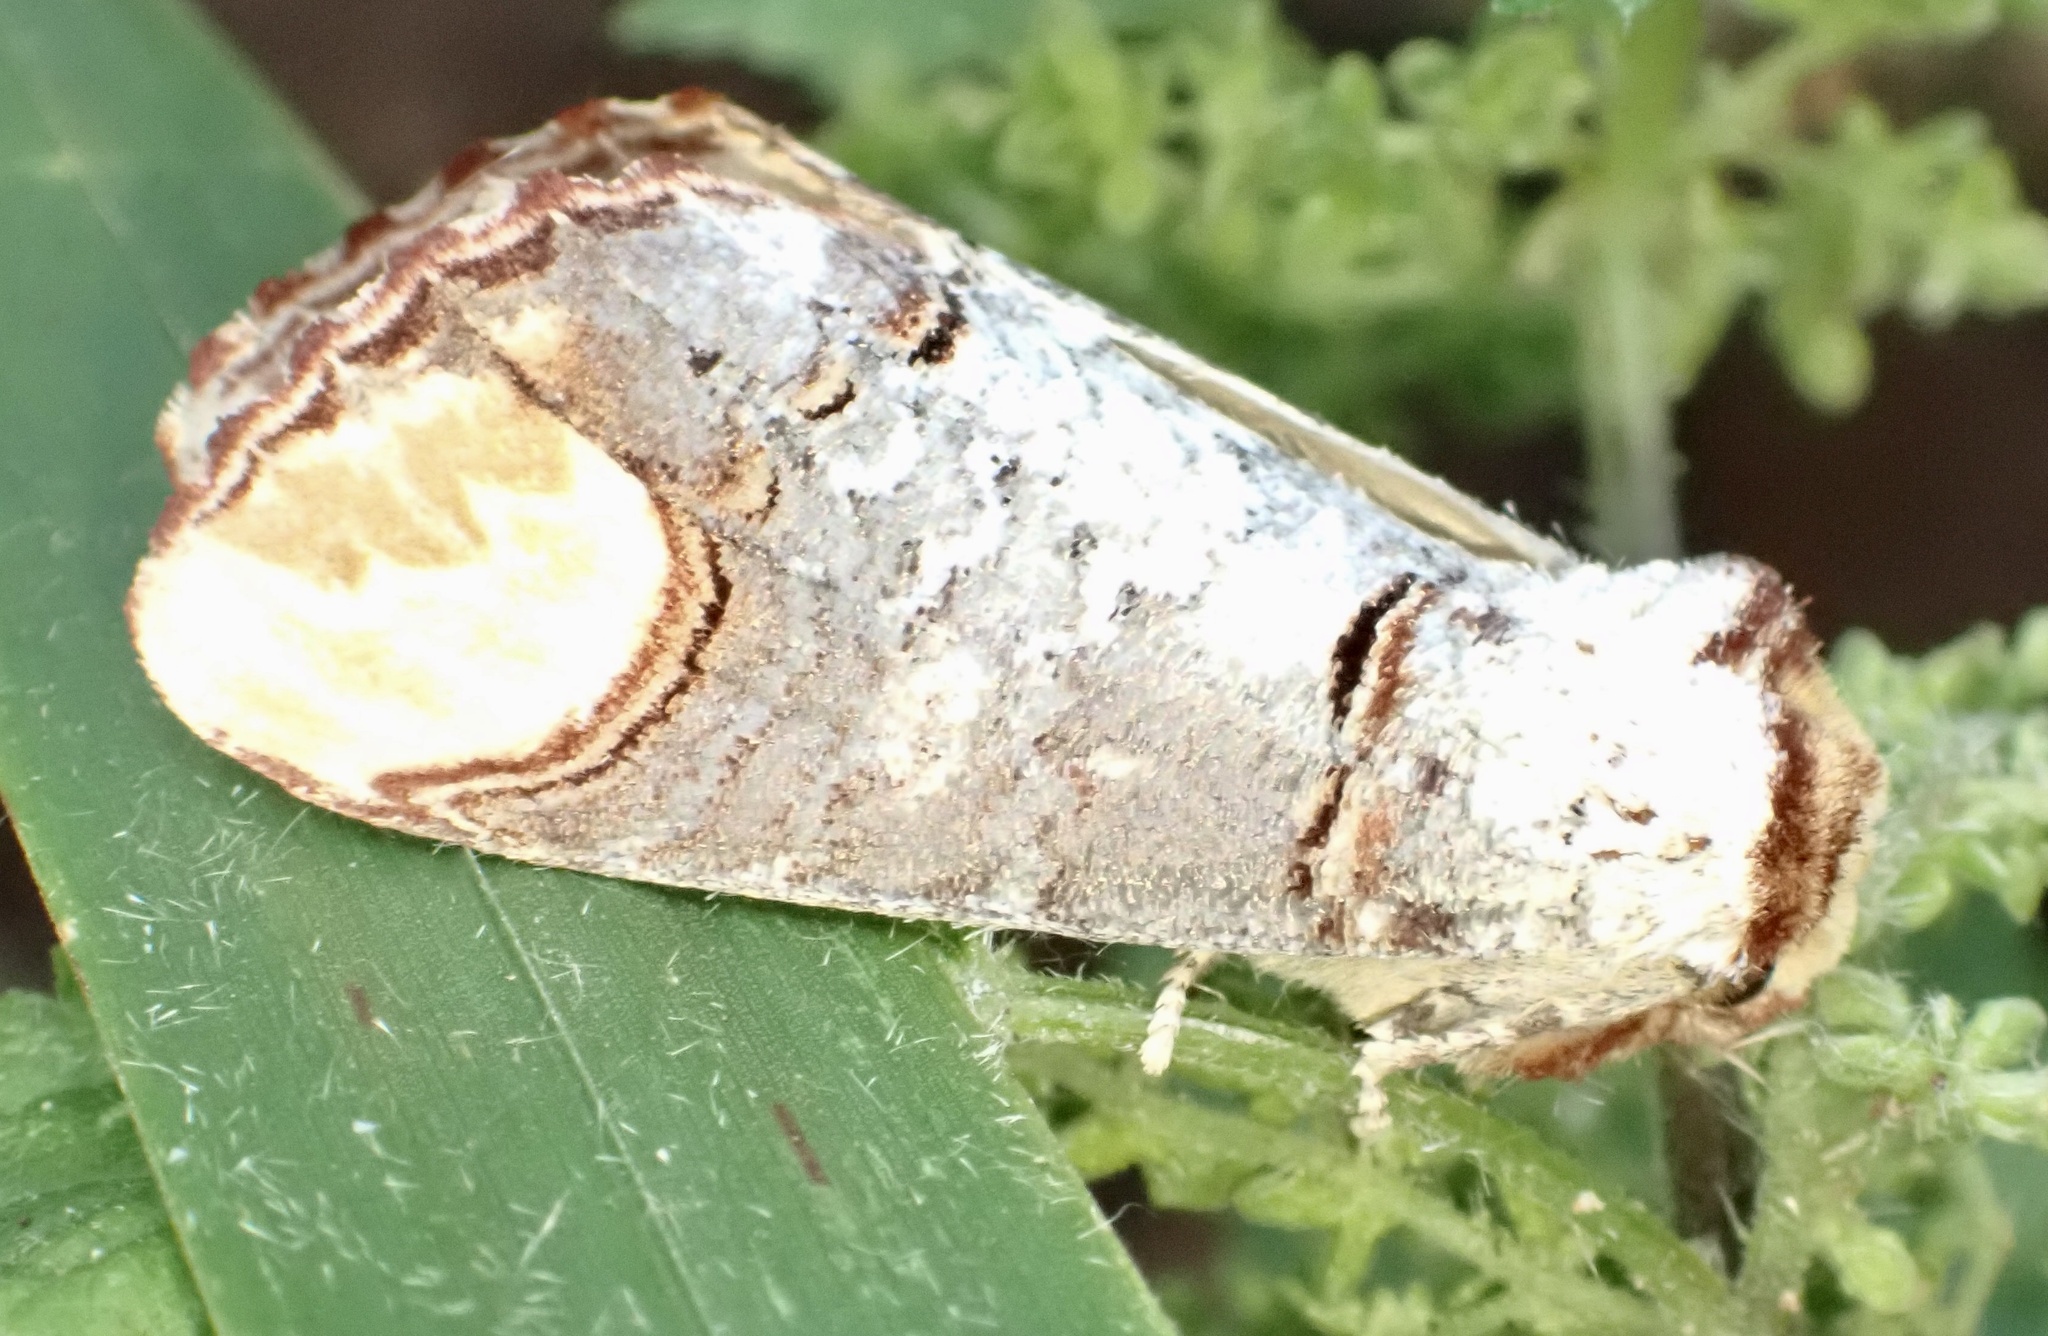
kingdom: Animalia
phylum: Arthropoda
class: Insecta
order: Lepidoptera
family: Notodontidae
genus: Phalera
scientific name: Phalera bucephala
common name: Buff-tip
